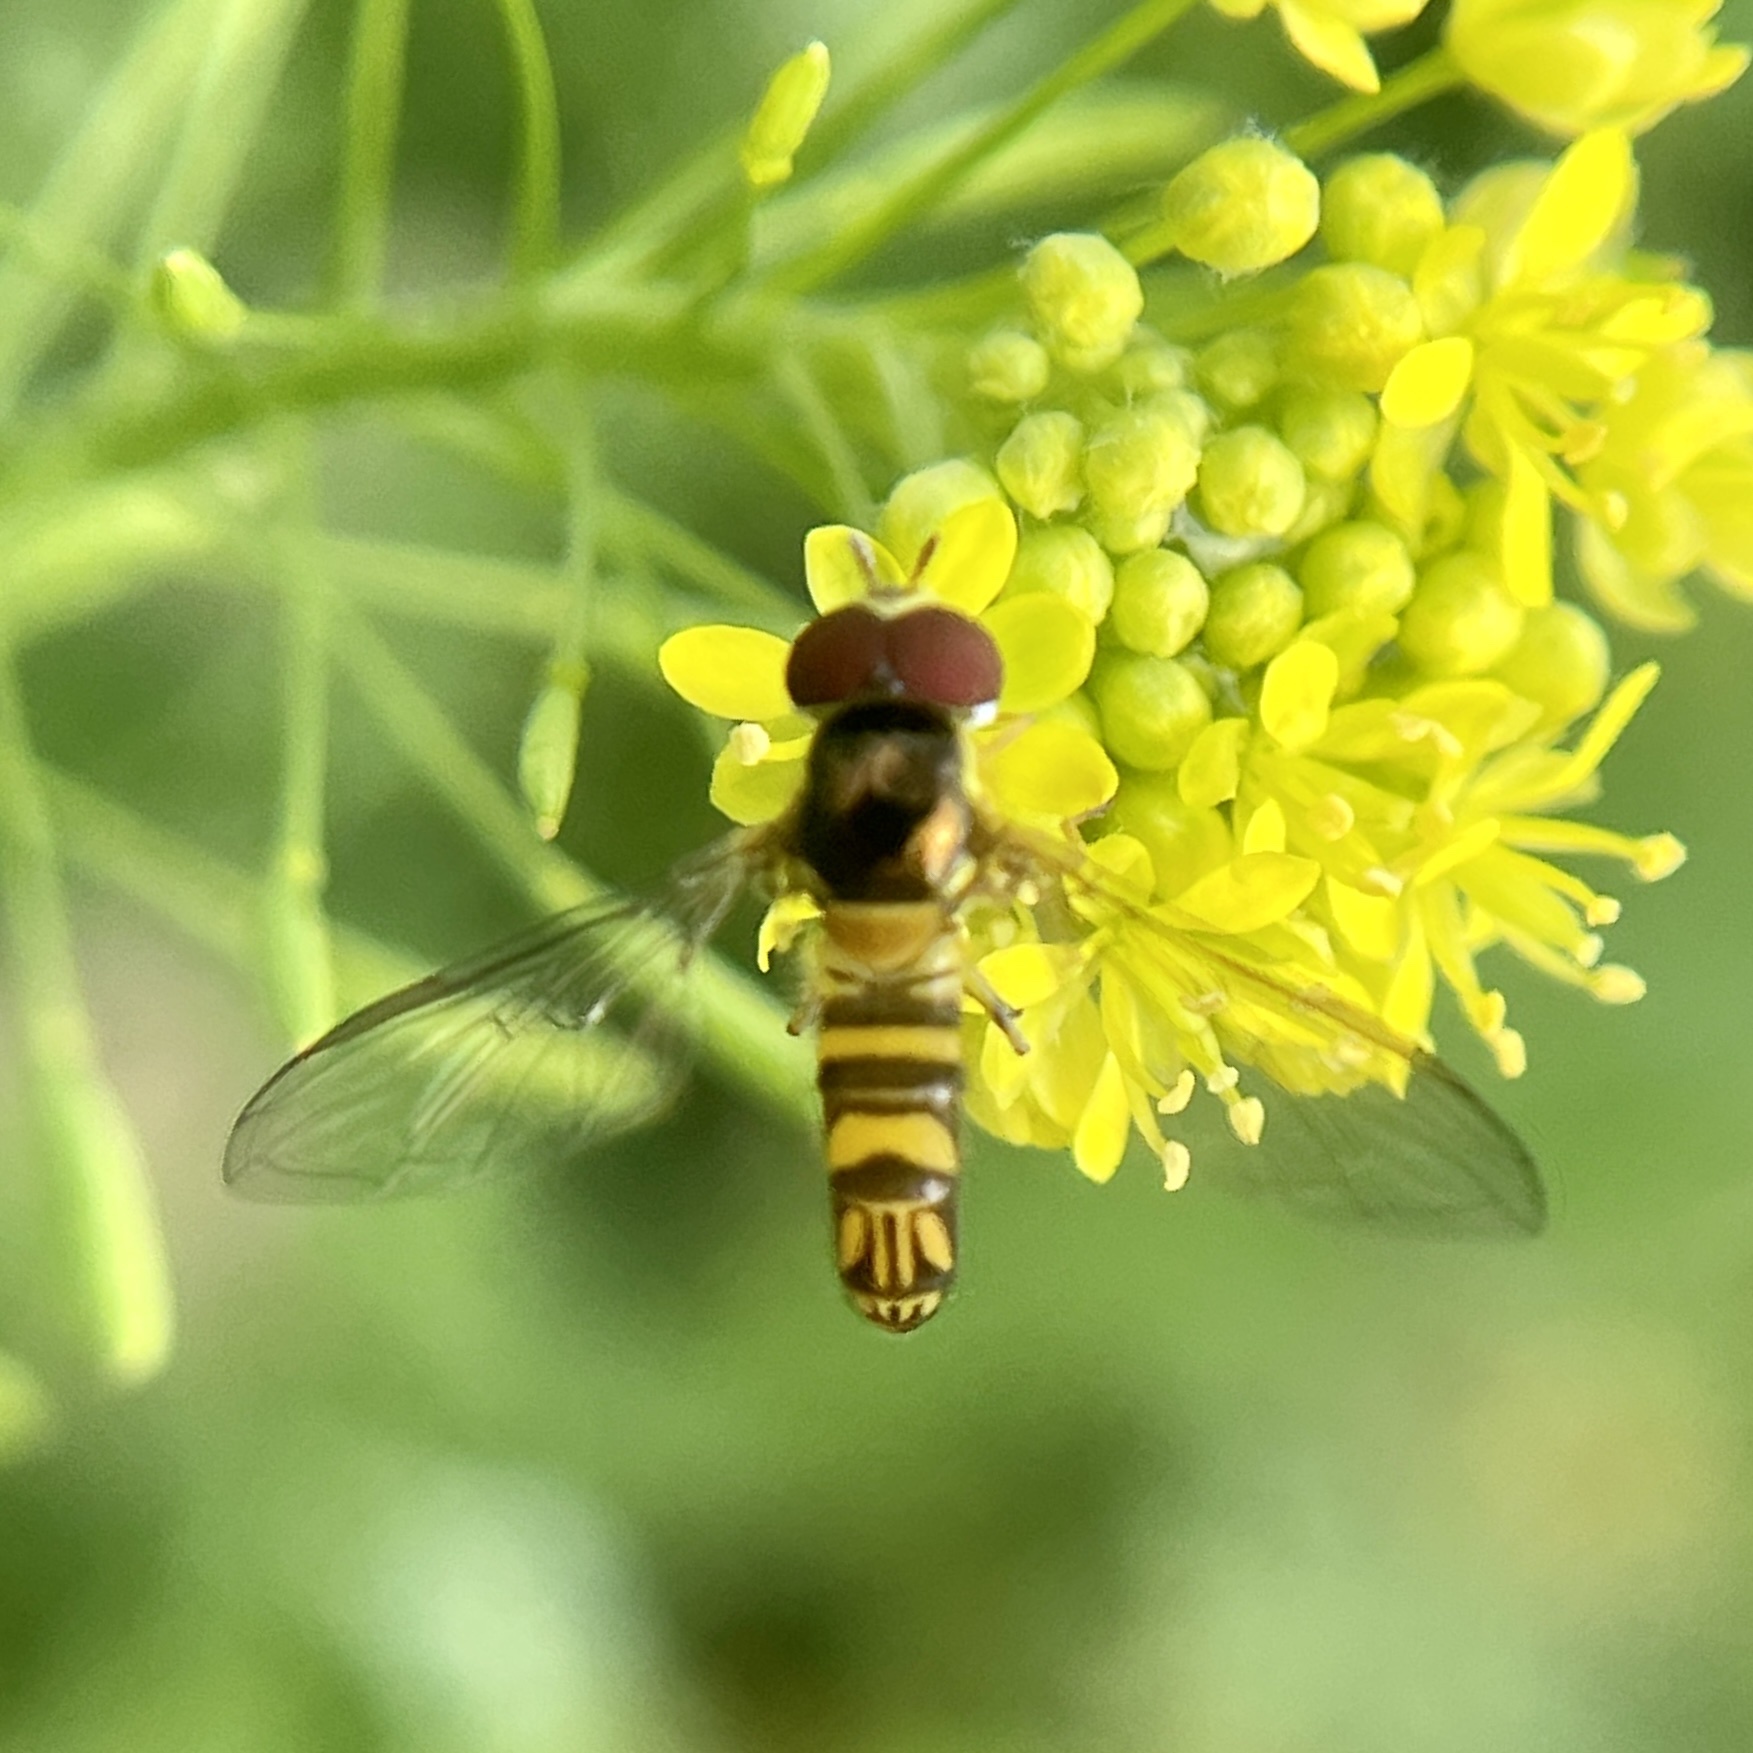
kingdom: Animalia
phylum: Arthropoda
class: Insecta
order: Diptera
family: Syrphidae
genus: Allograpta
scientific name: Allograpta obliqua
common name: Common oblique syrphid
